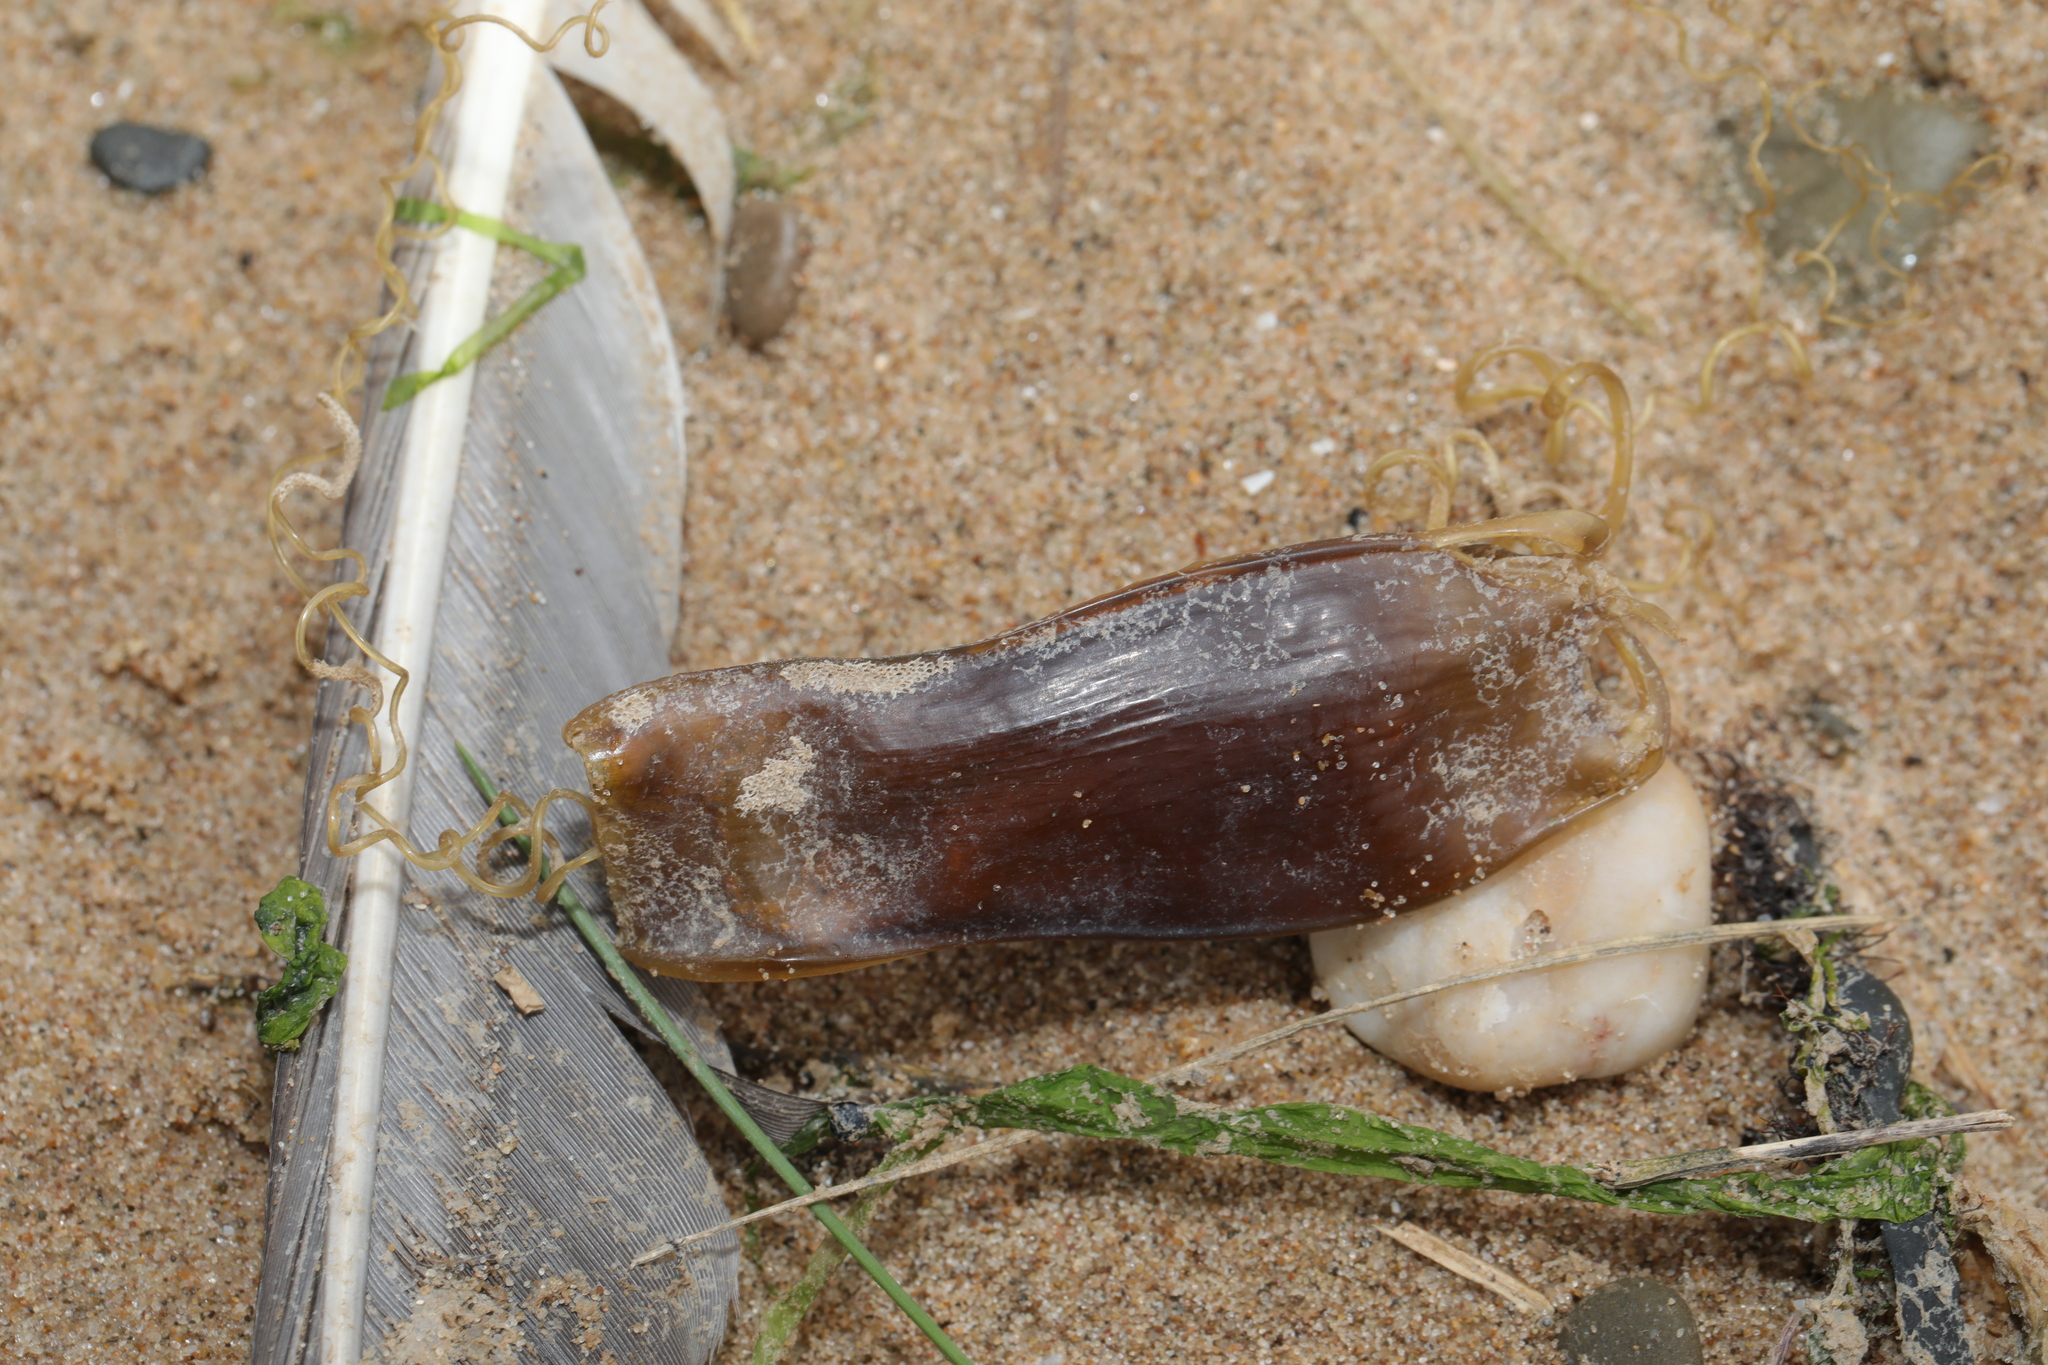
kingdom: Animalia
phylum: Chordata
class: Elasmobranchii
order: Carcharhiniformes
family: Scyliorhinidae
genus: Scyliorhinus
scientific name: Scyliorhinus canicula
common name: Lesser spotted dogfish
